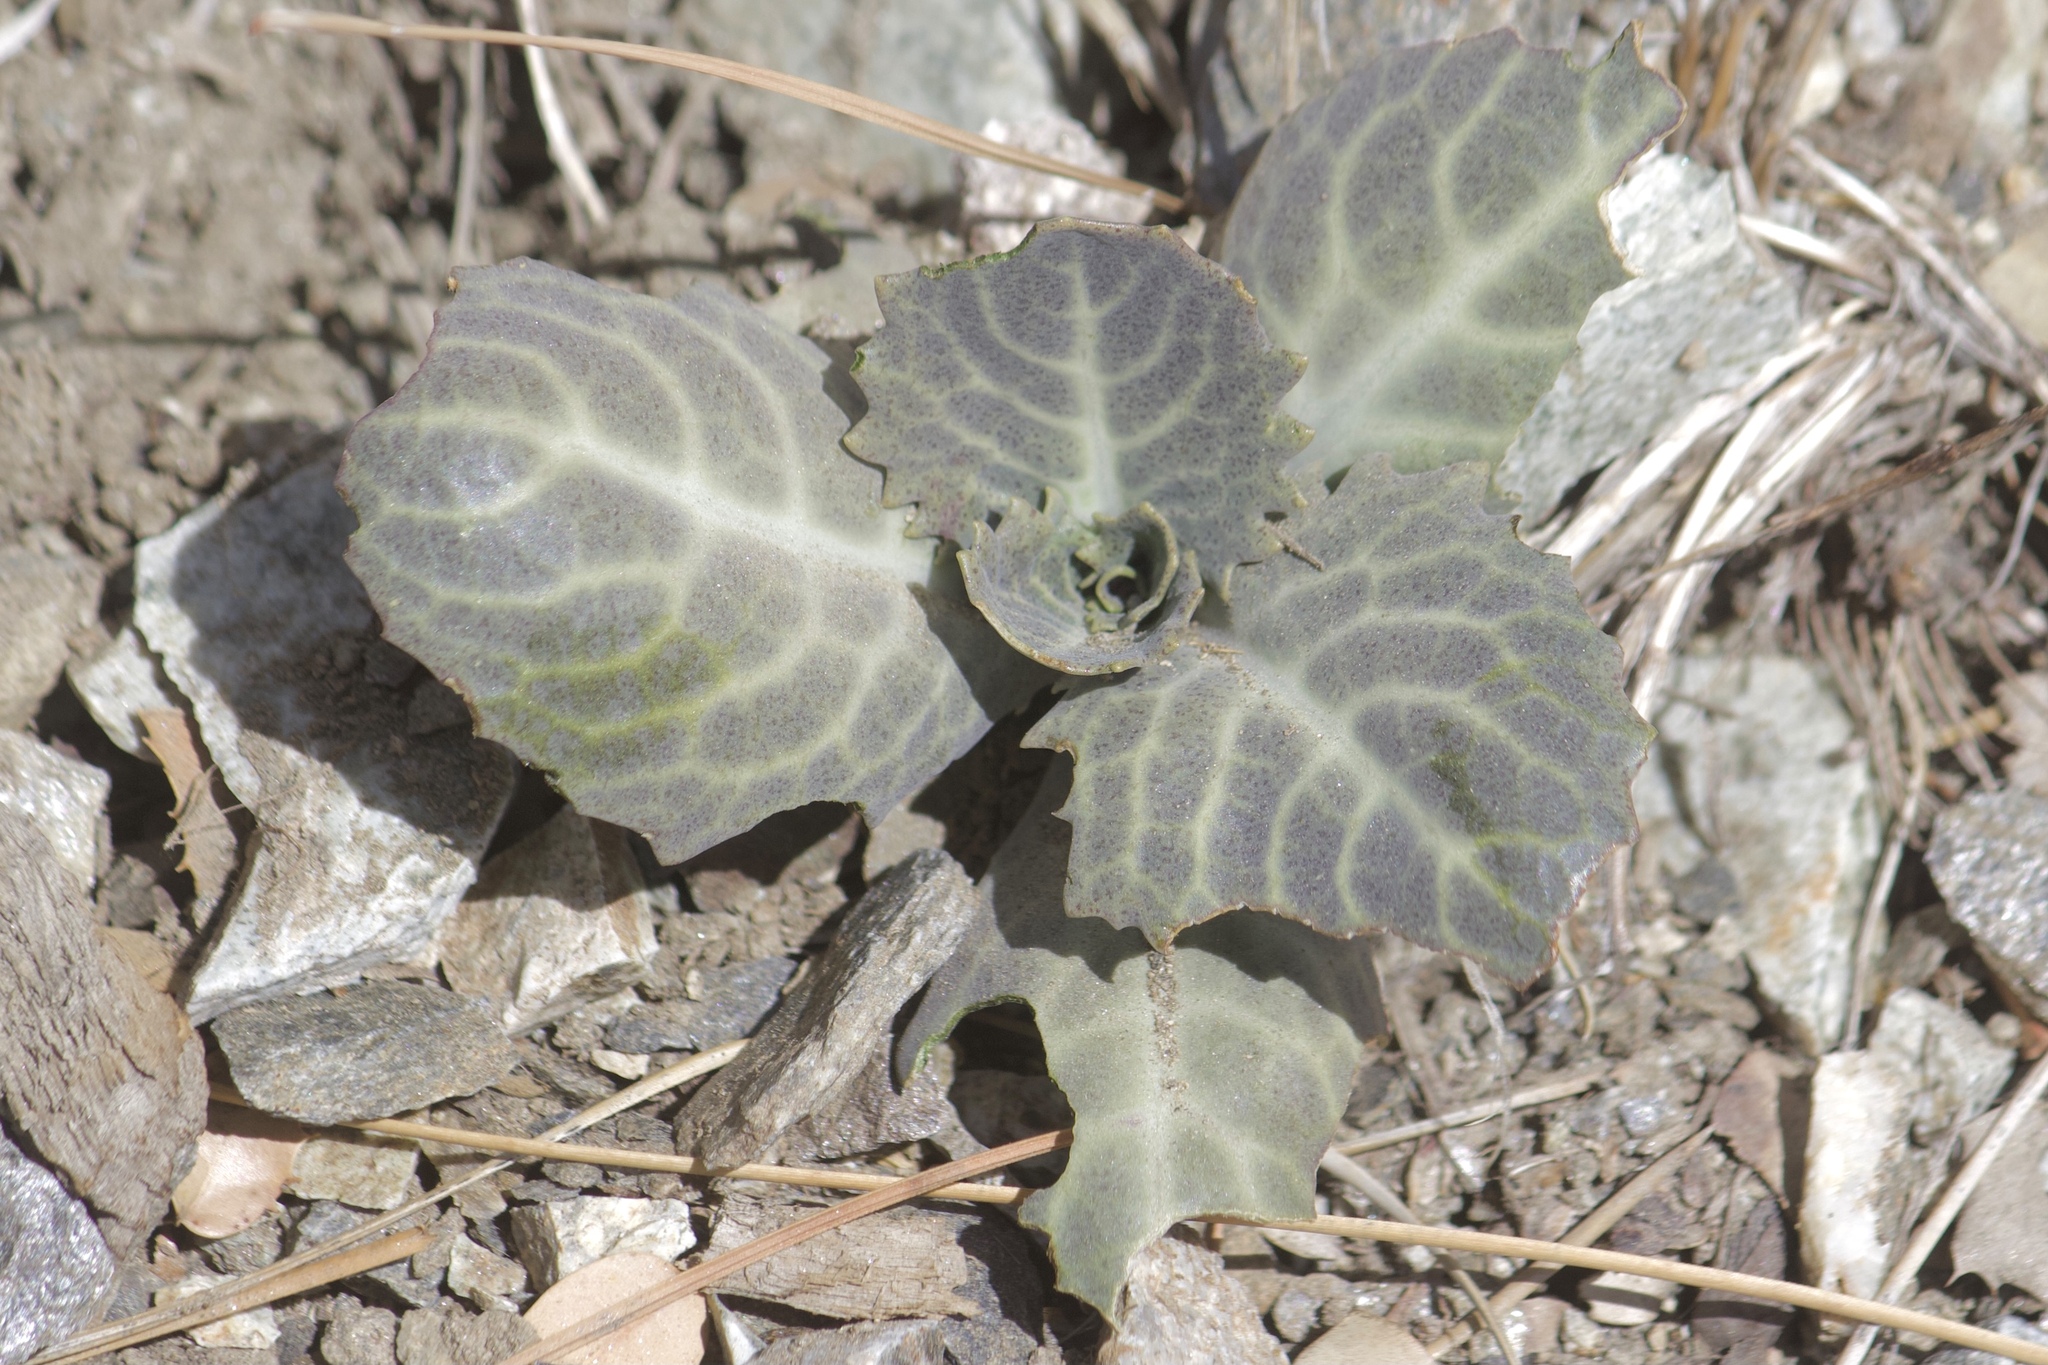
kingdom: Plantae
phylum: Tracheophyta
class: Magnoliopsida
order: Brassicales
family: Brassicaceae
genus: Streptanthus
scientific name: Streptanthus amplexicaulis
